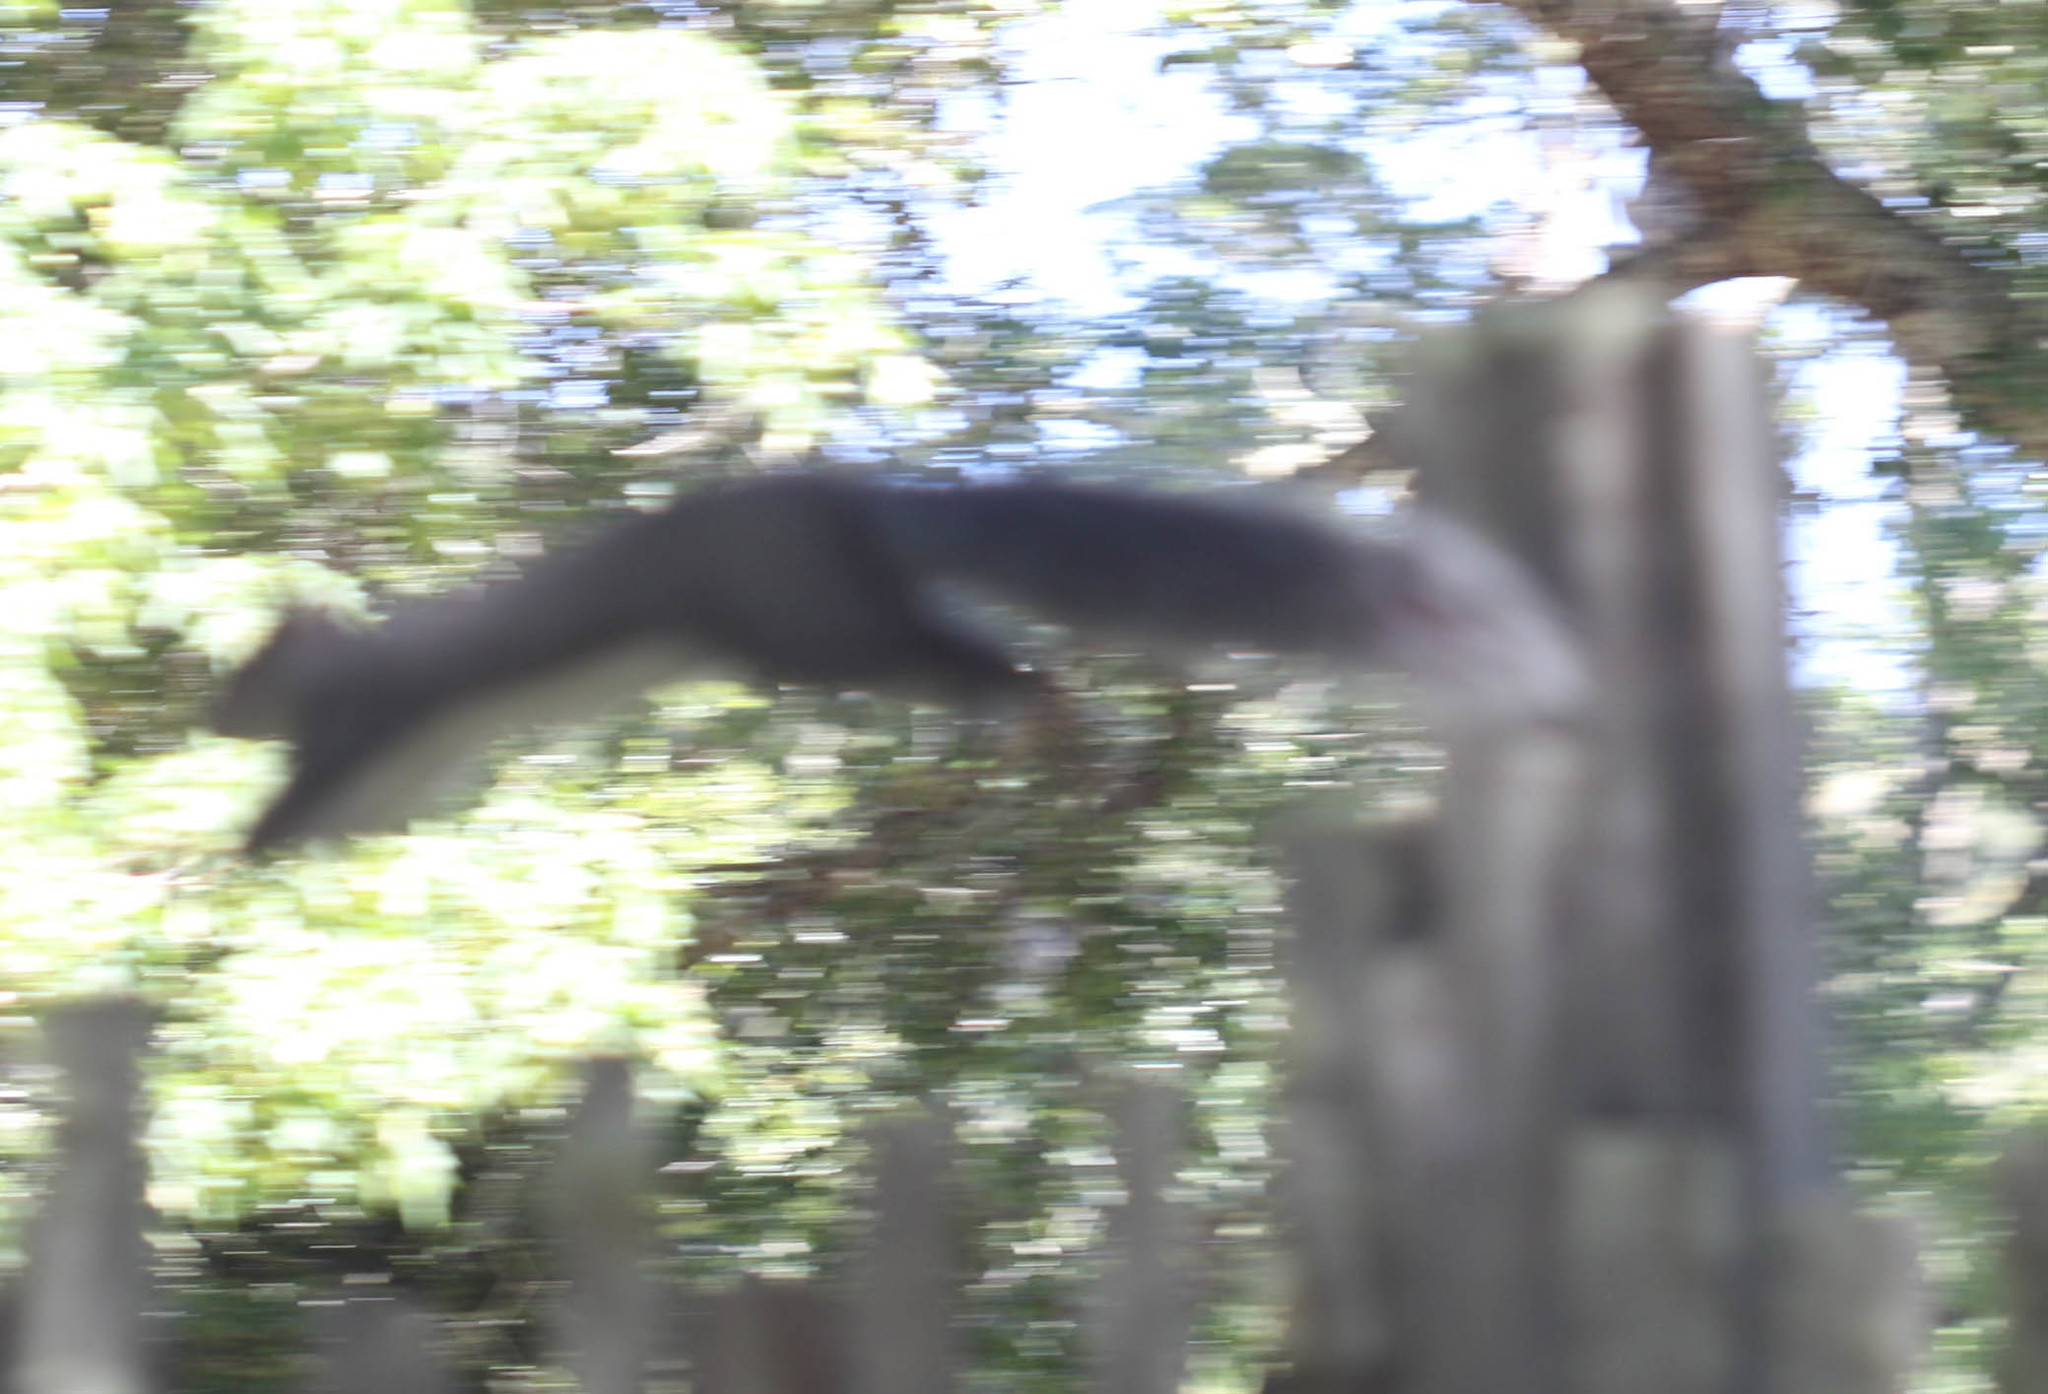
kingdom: Animalia
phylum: Chordata
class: Mammalia
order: Rodentia
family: Sciuridae
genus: Sciurus
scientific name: Sciurus griseus
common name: Western gray squirrel
